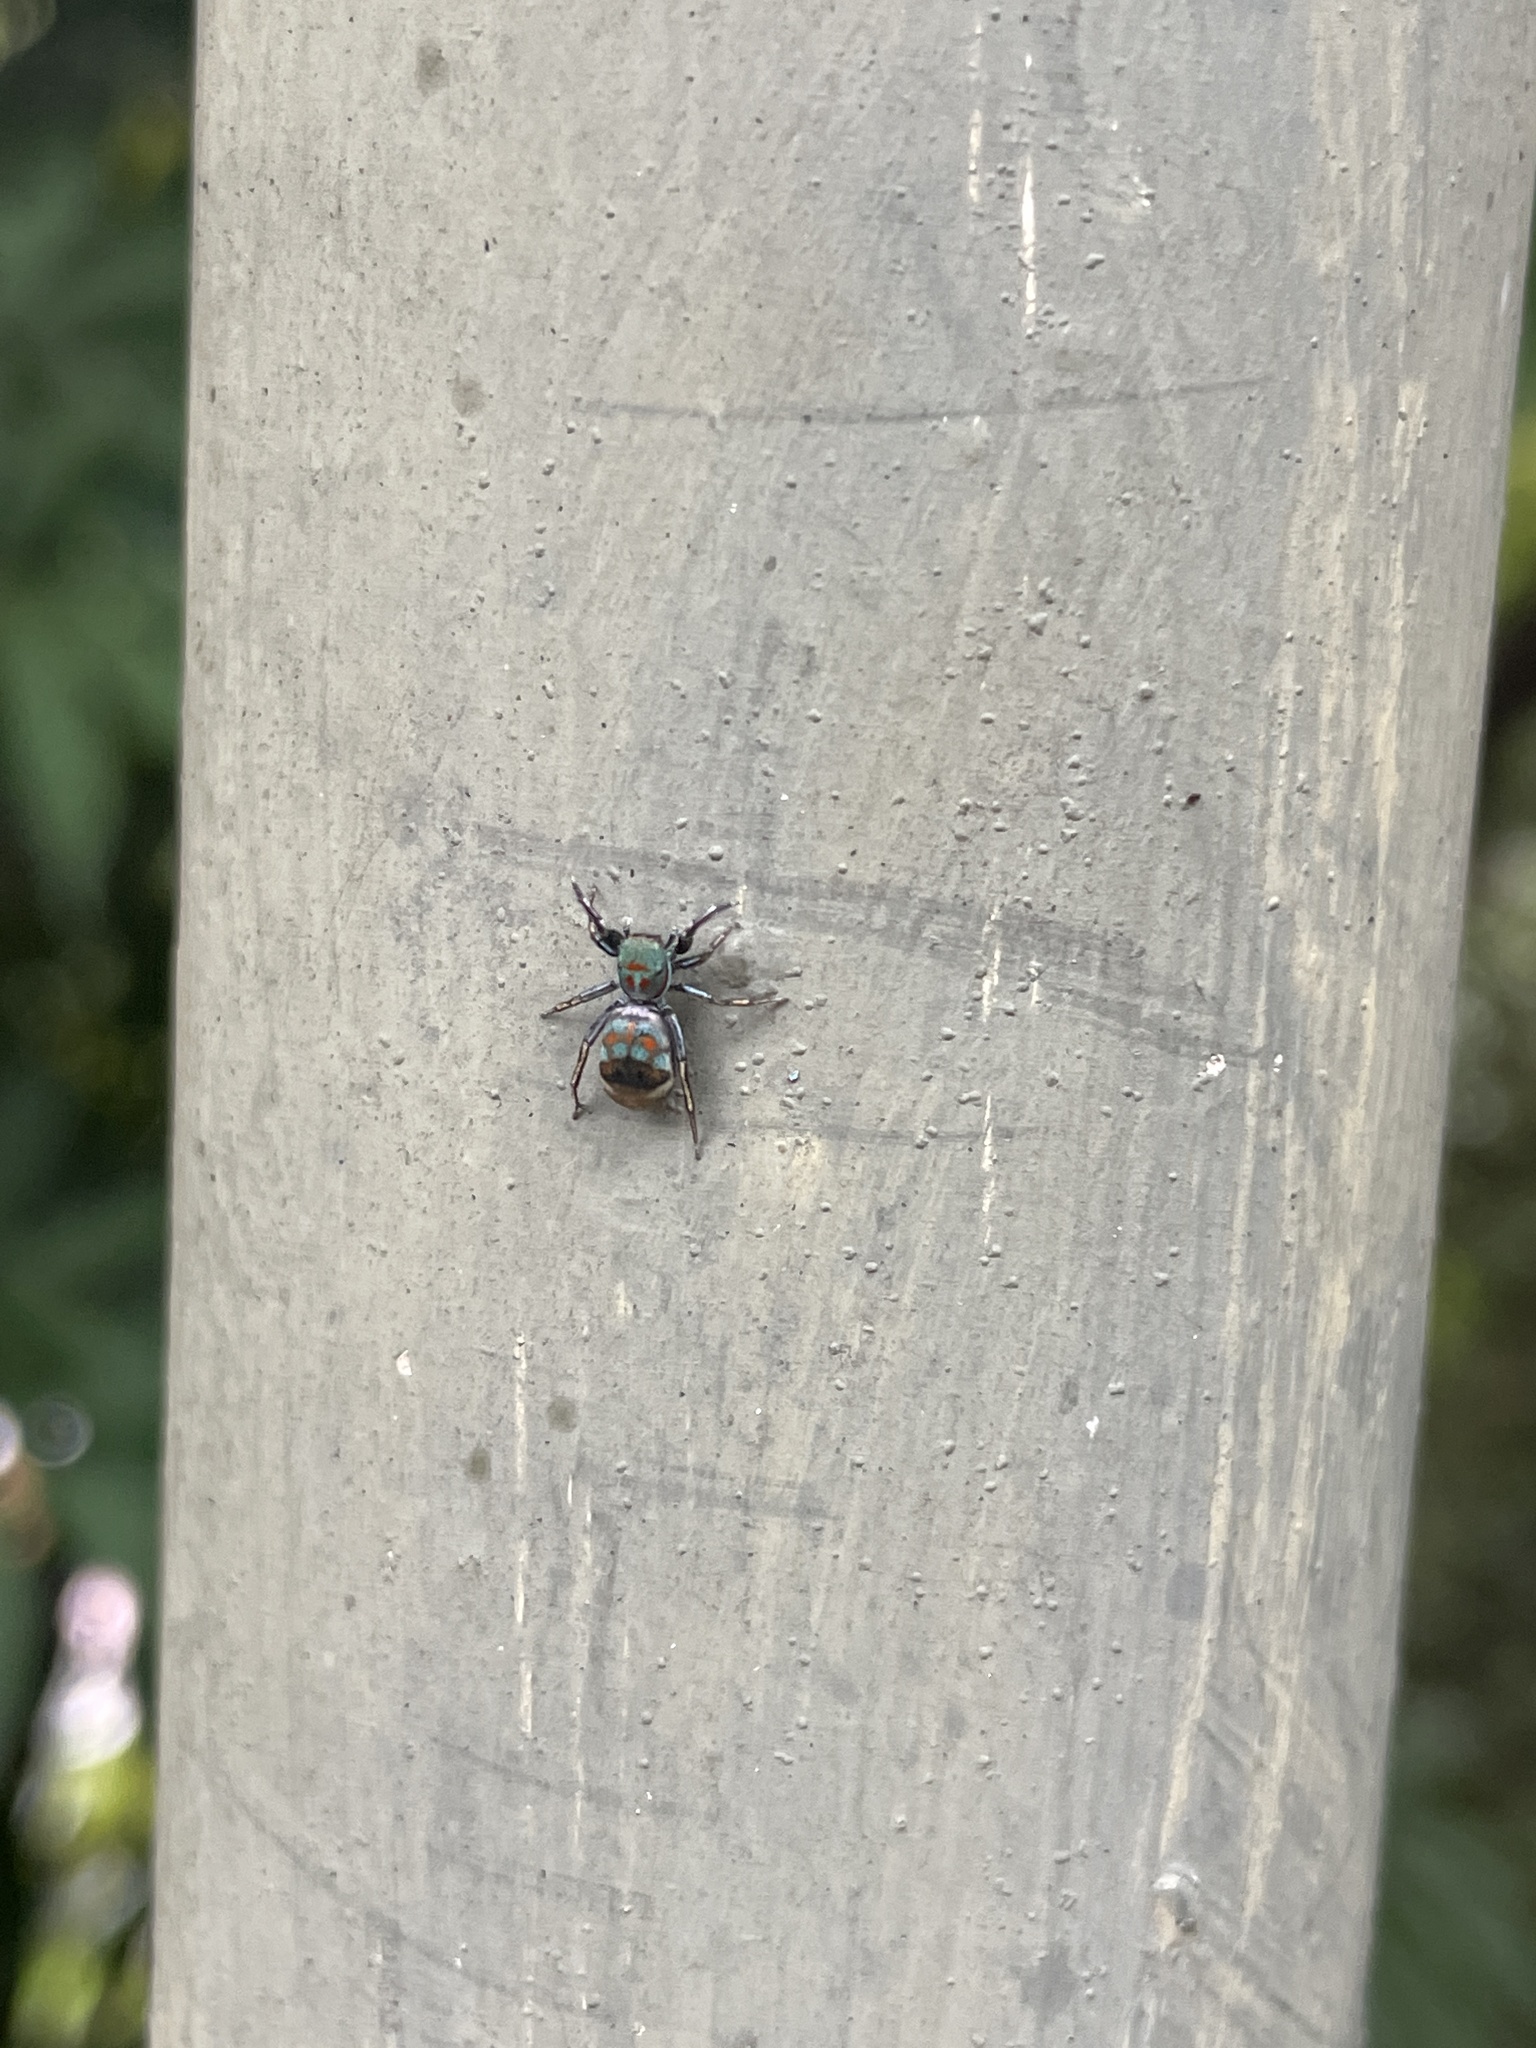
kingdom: Animalia
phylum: Arthropoda
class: Arachnida
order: Araneae
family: Salticidae
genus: Siler
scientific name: Siler collingwoodi
